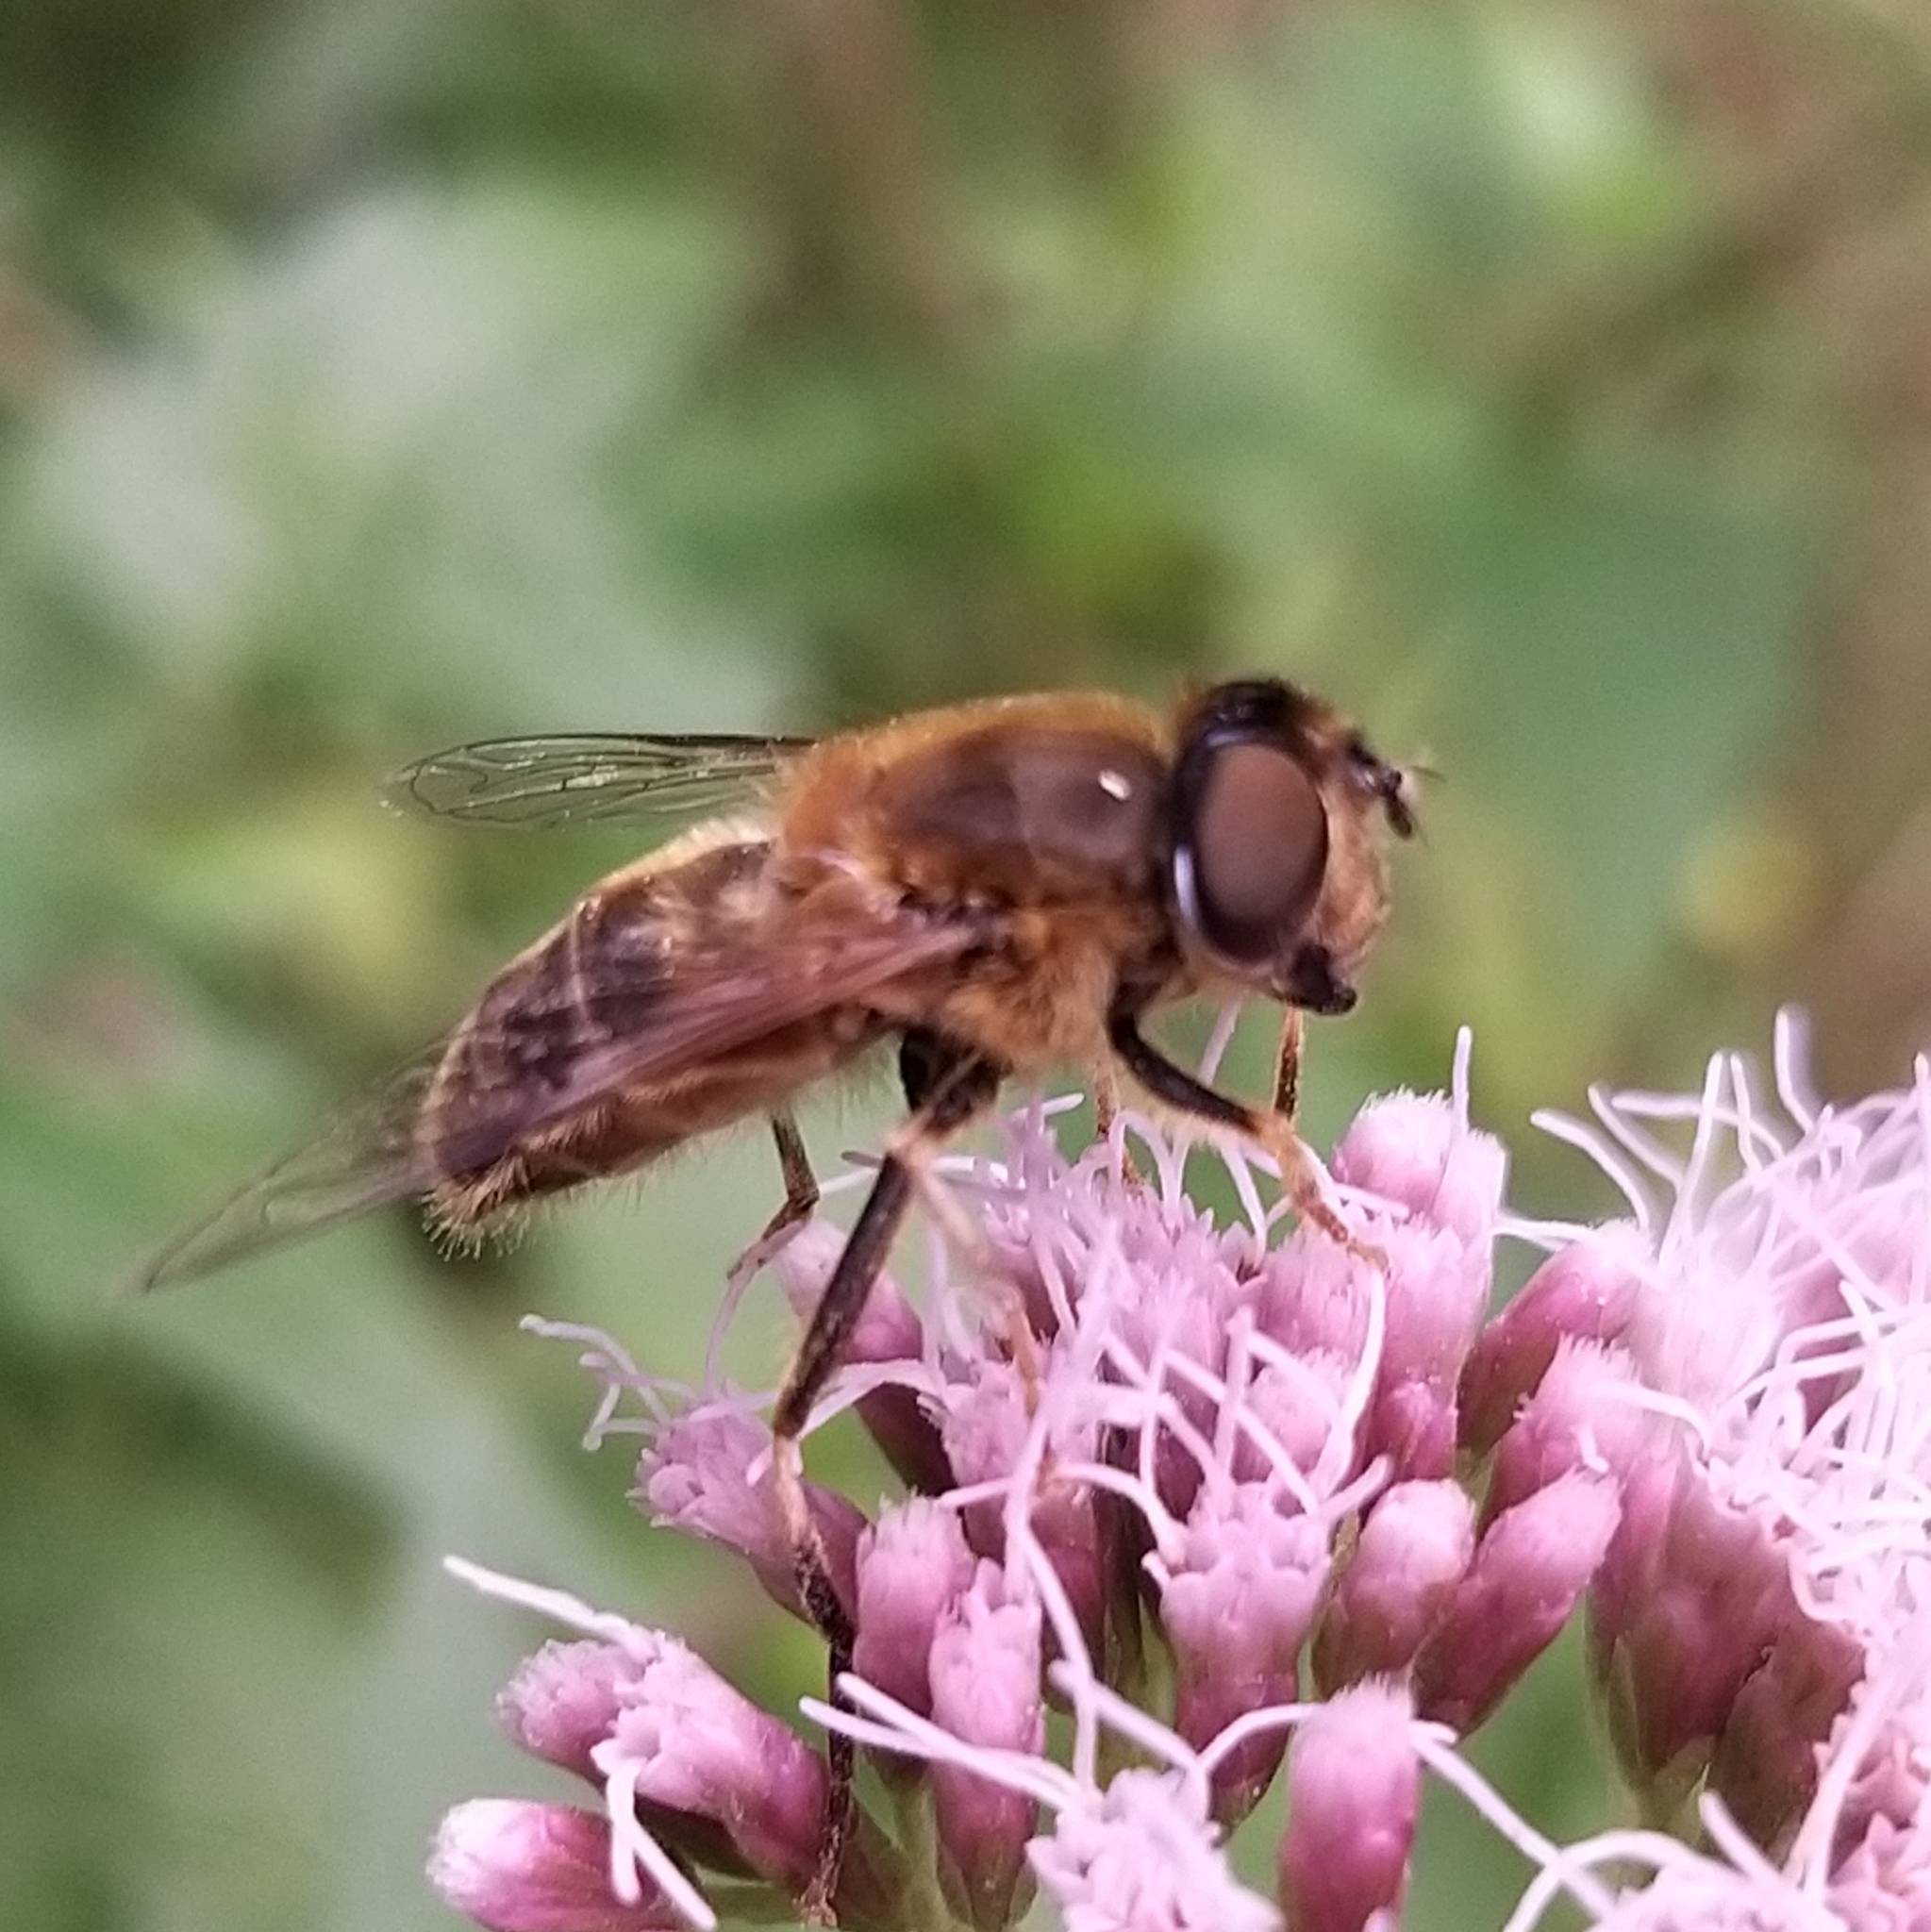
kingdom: Animalia
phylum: Arthropoda
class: Insecta
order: Diptera
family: Syrphidae
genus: Eristalis
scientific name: Eristalis pertinax
